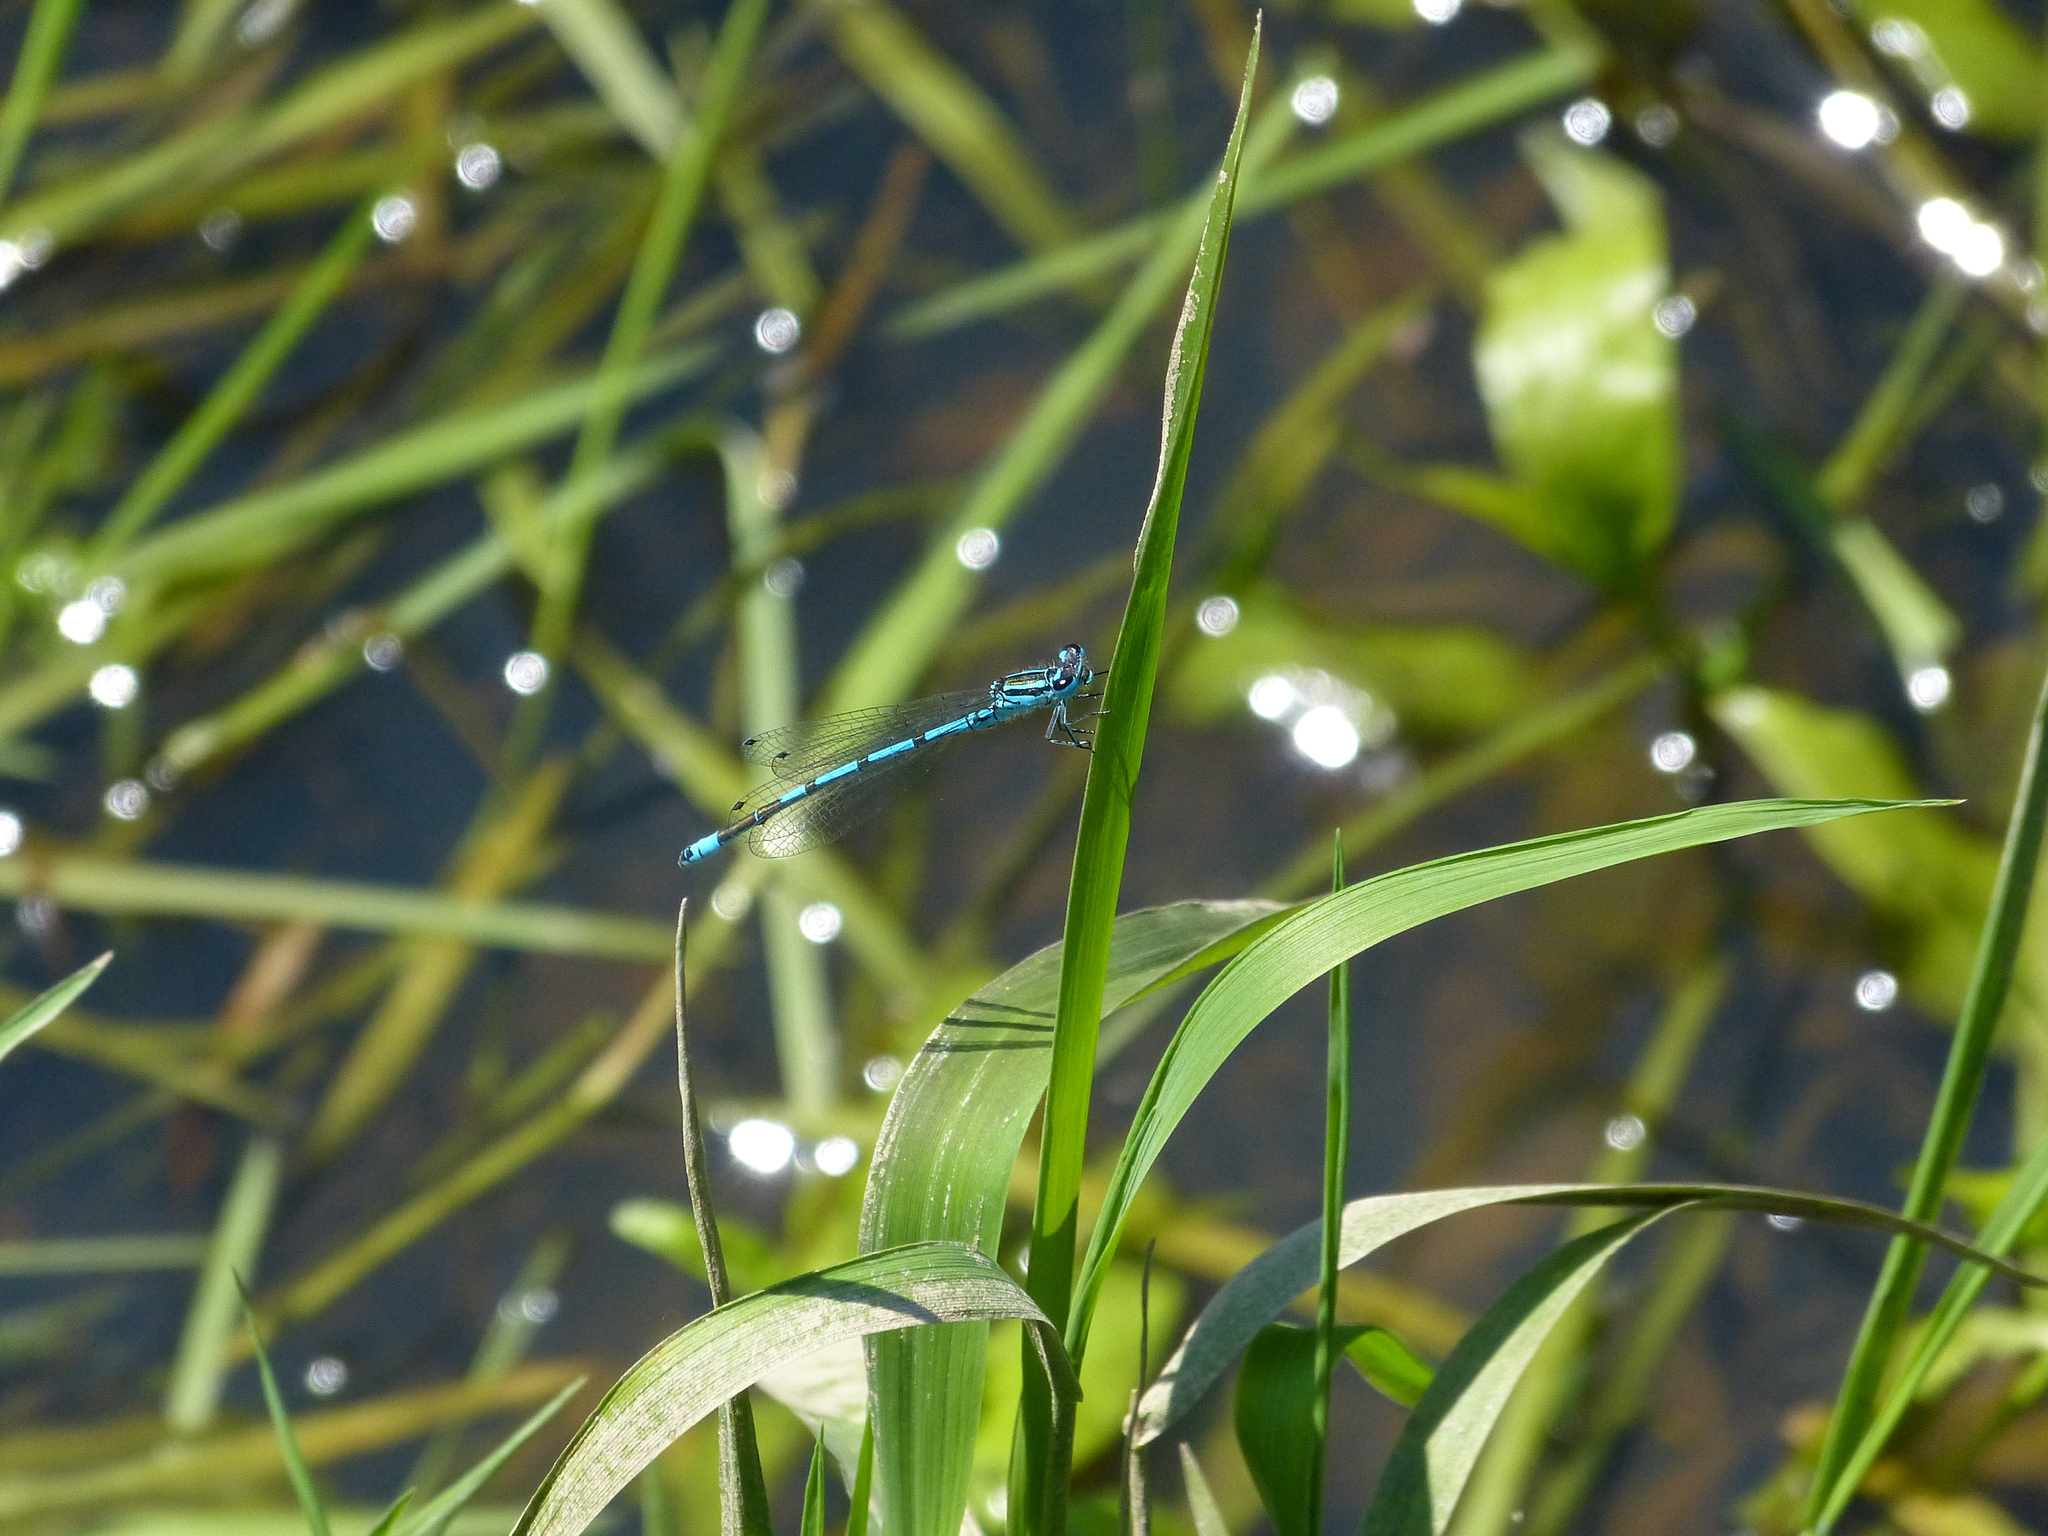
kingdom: Animalia
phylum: Arthropoda
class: Insecta
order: Odonata
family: Coenagrionidae
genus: Coenagrion
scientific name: Coenagrion puella
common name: Azure damselfly
